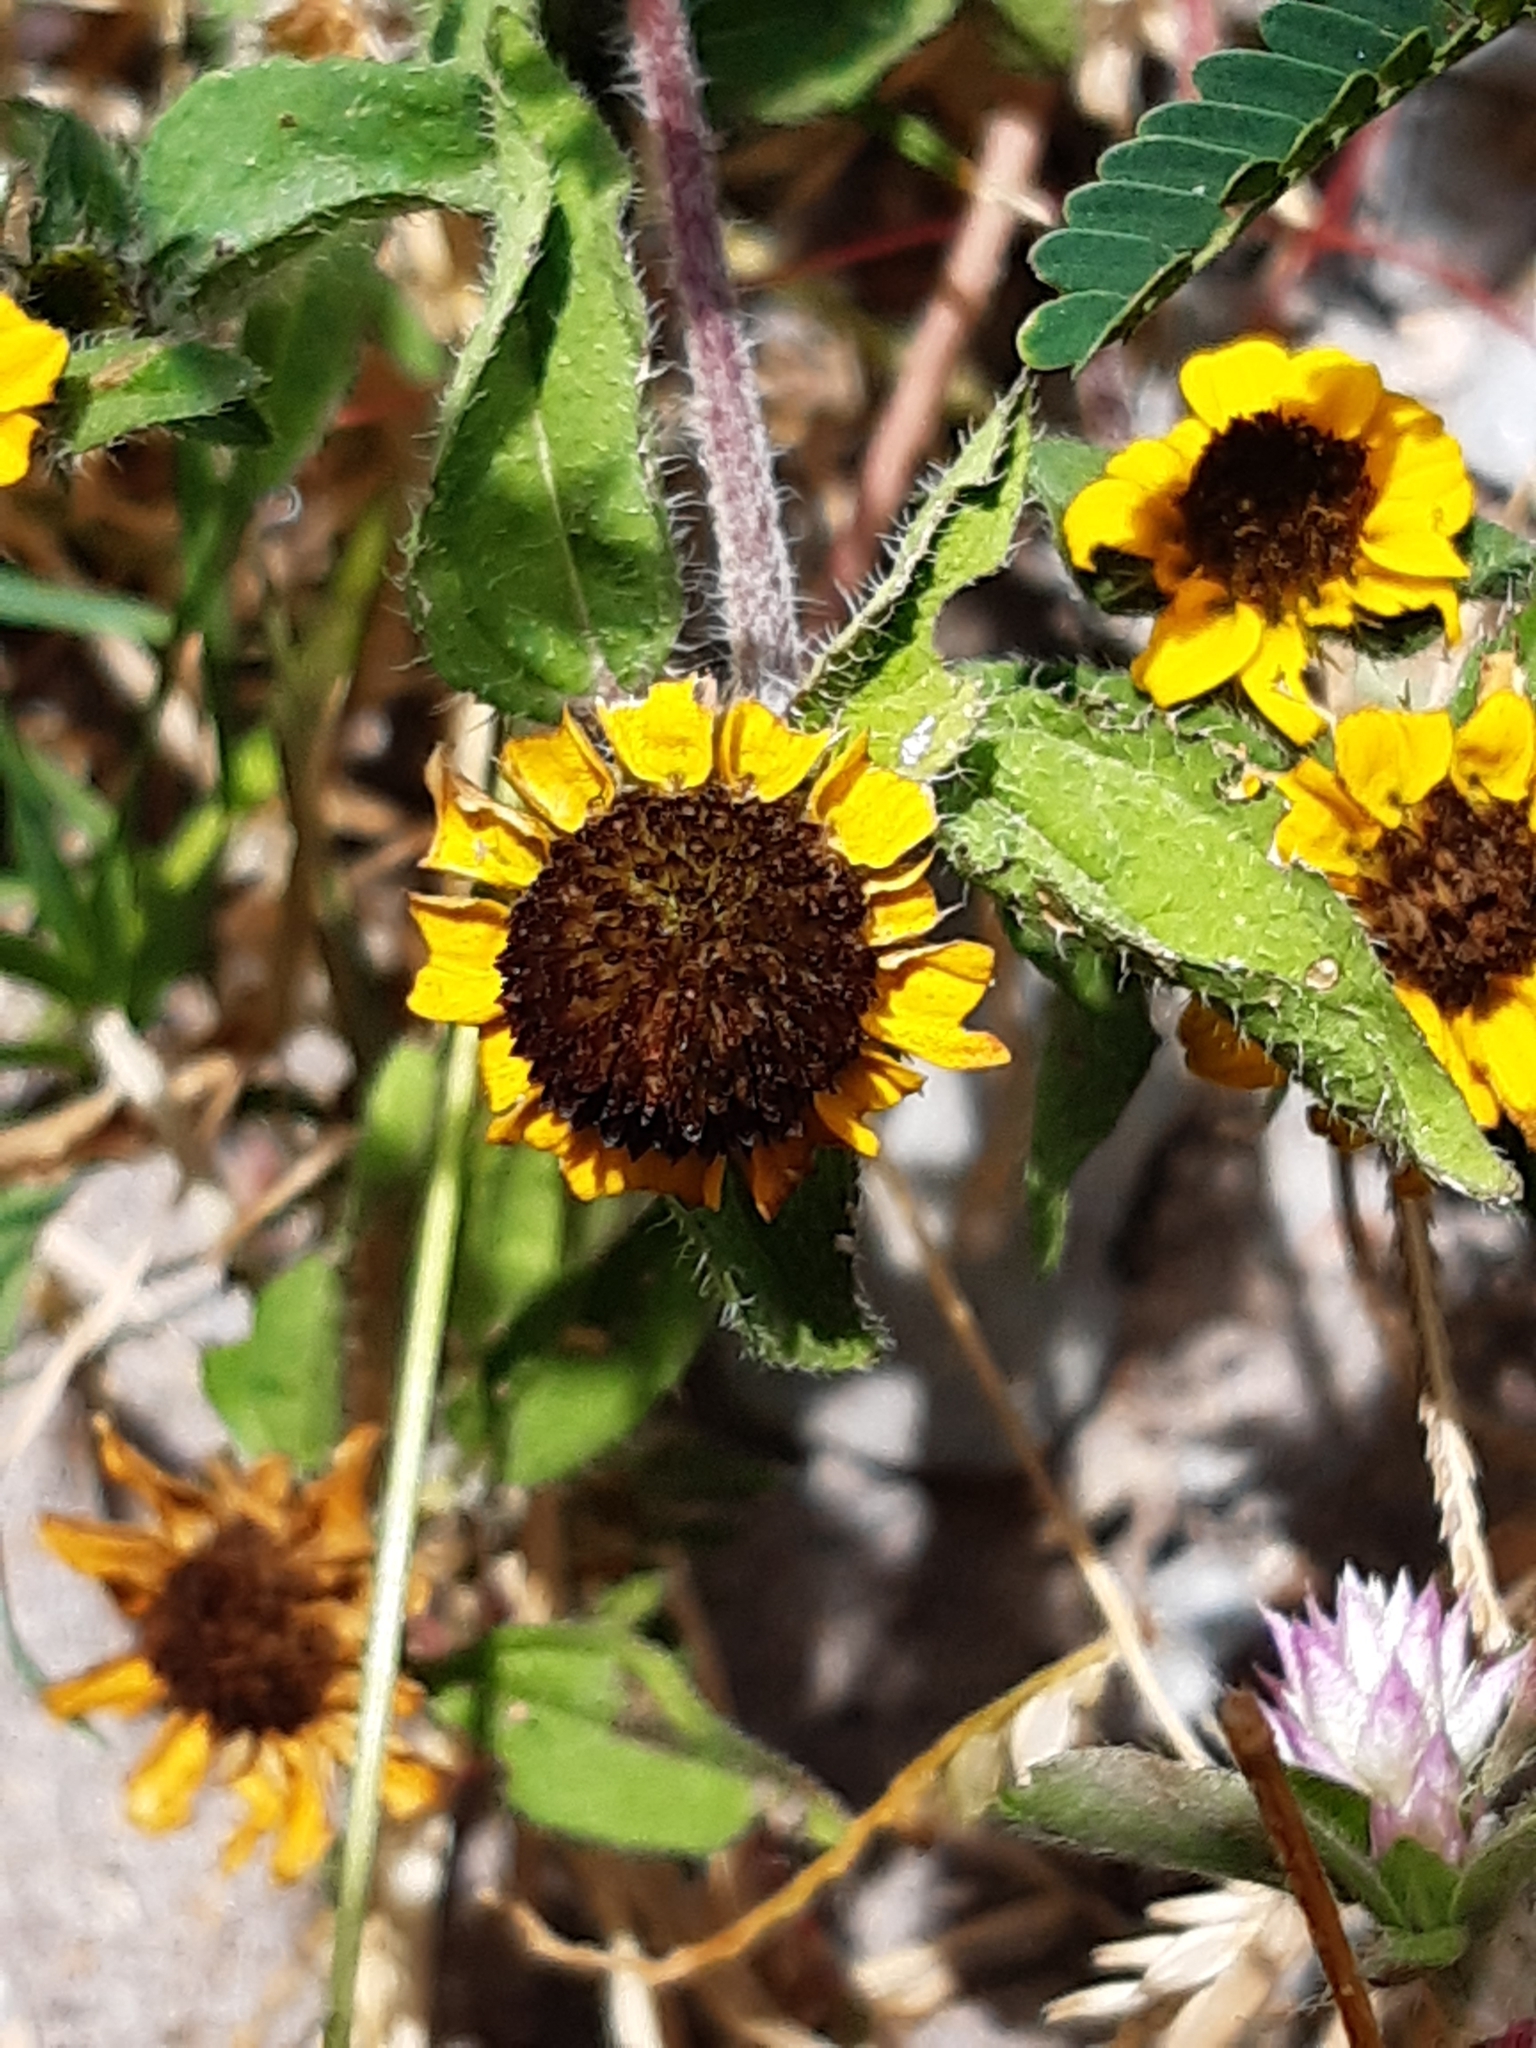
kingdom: Plantae
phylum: Tracheophyta
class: Magnoliopsida
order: Asterales
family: Asteraceae
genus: Sanvitalia
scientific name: Sanvitalia procumbens
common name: Mexican creeping zinnia
